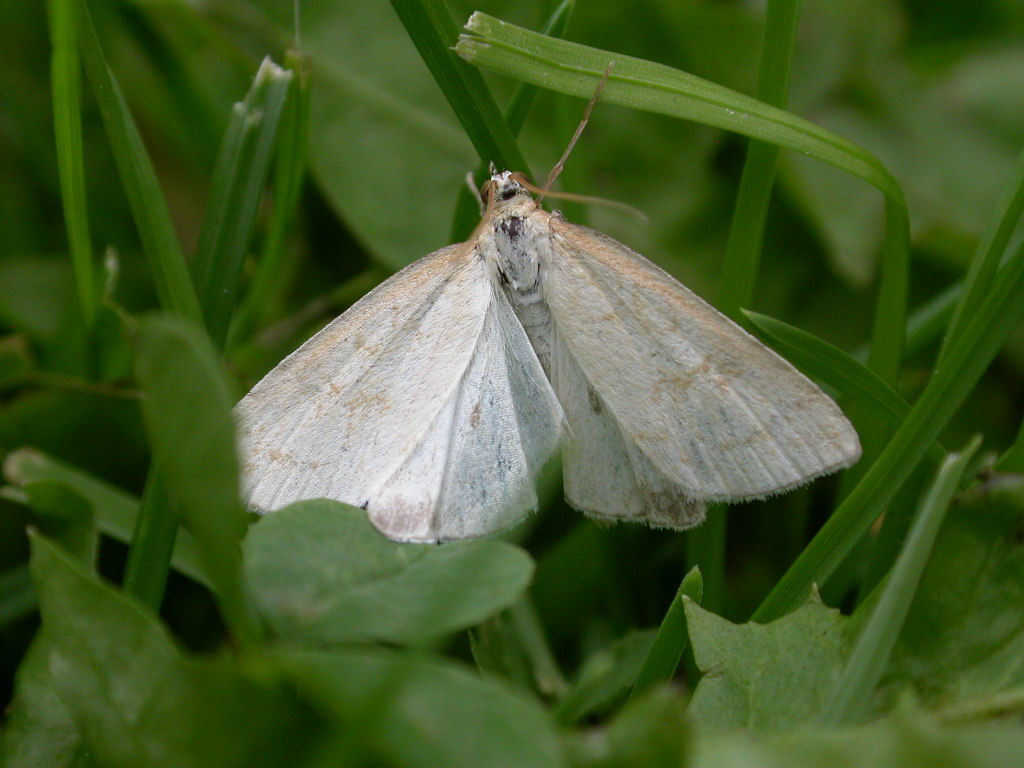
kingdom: Animalia
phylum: Arthropoda
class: Insecta
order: Lepidoptera
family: Crambidae
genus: Udea
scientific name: Udea lutealis
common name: Pale straw pearl
